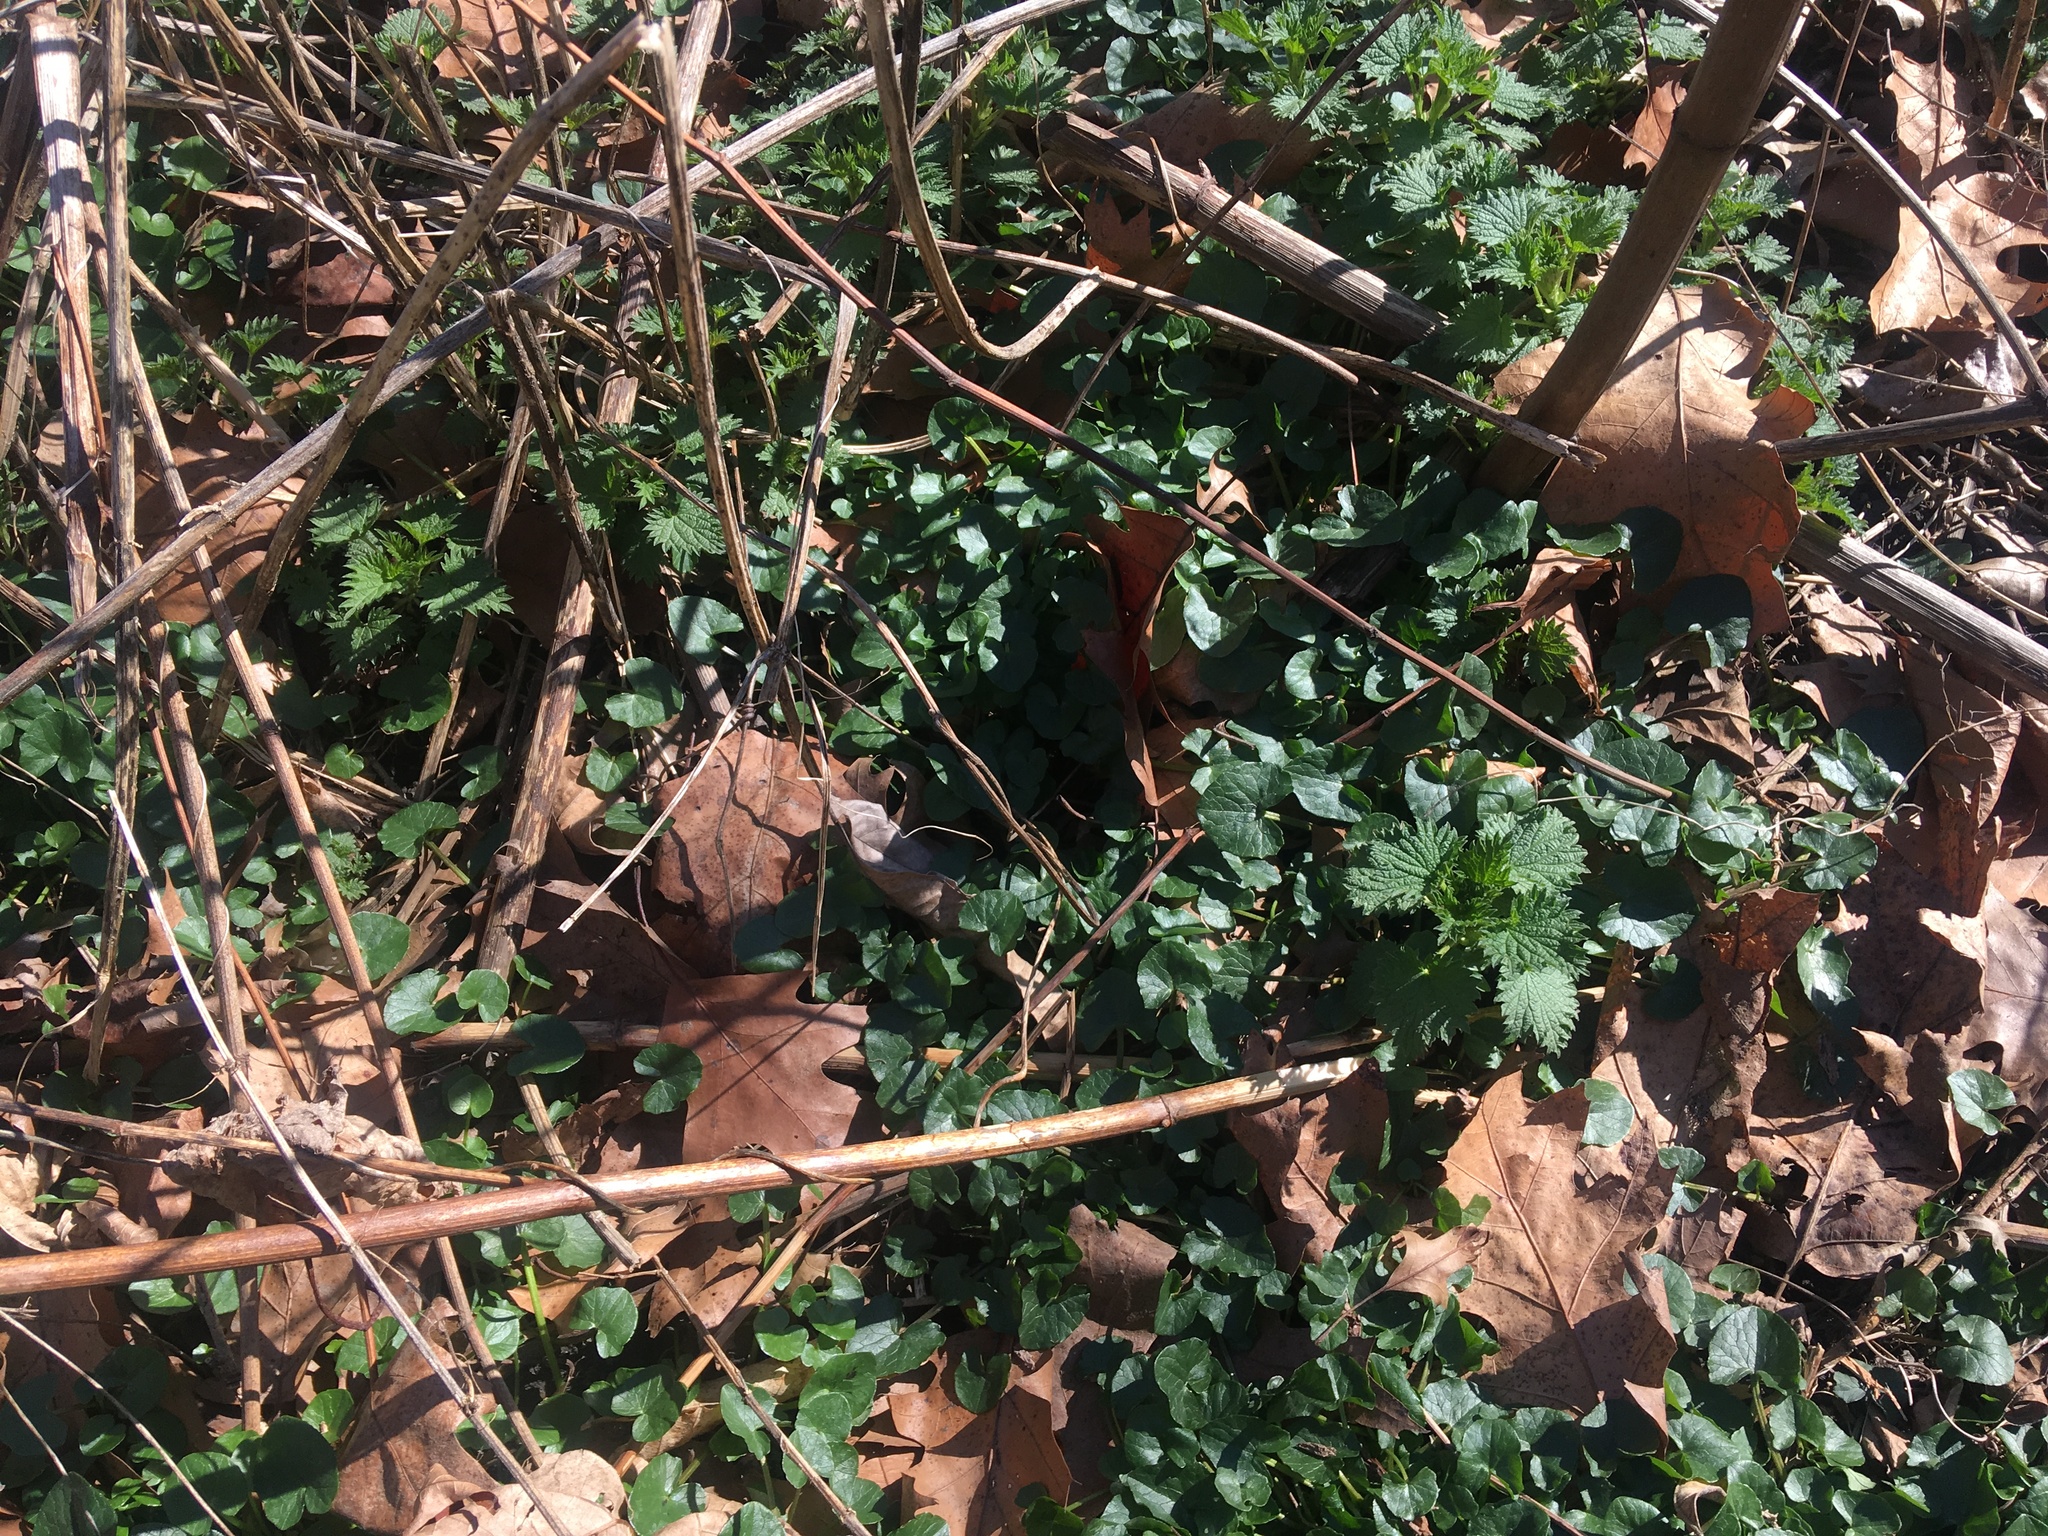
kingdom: Plantae
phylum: Tracheophyta
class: Magnoliopsida
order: Ranunculales
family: Ranunculaceae
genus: Ficaria
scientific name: Ficaria verna
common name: Lesser celandine
